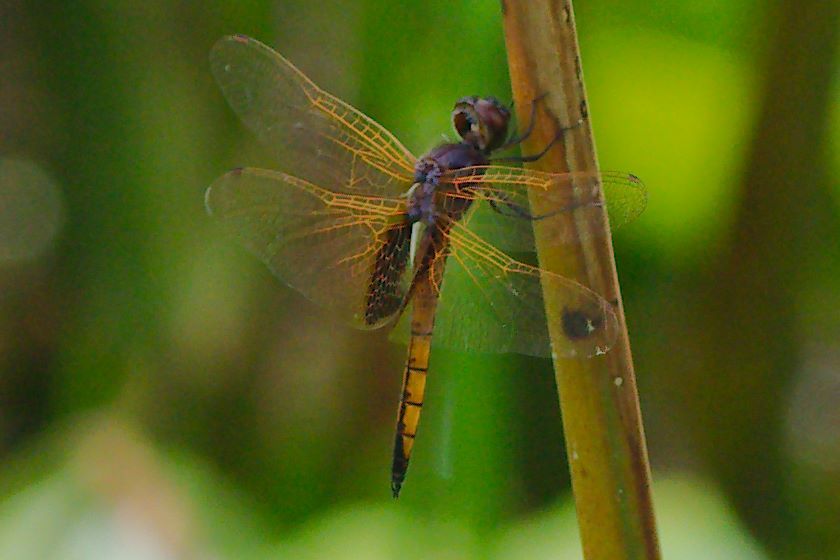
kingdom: Animalia
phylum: Arthropoda
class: Insecta
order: Odonata
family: Libellulidae
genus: Miathyria
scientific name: Miathyria marcella
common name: Hyacinth glider
